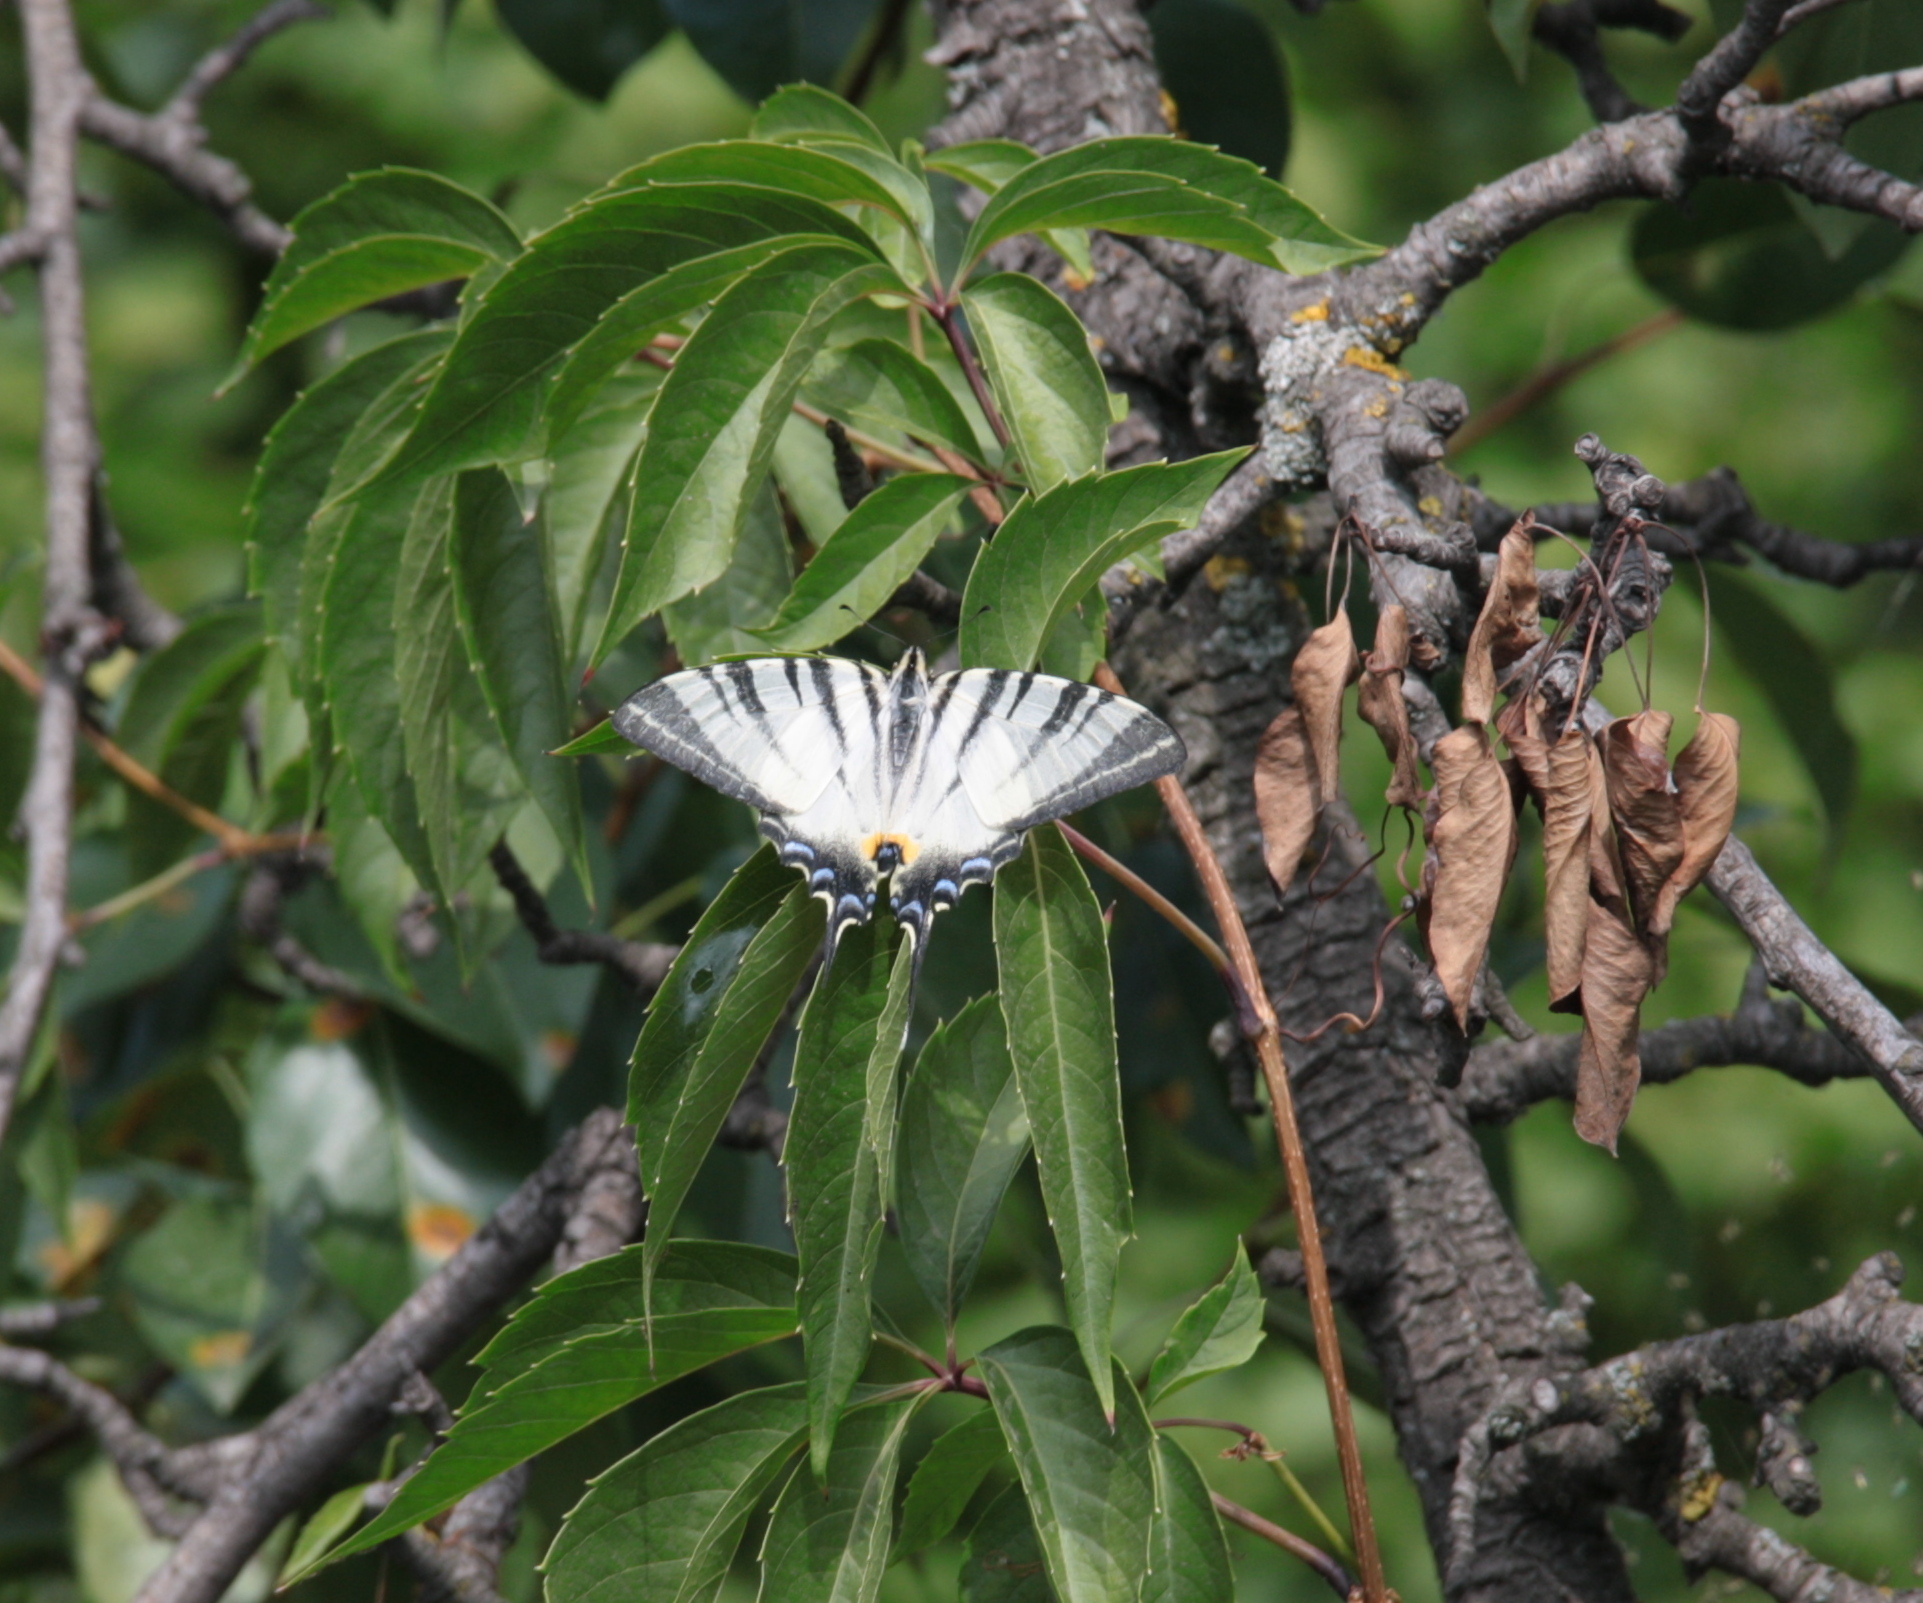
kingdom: Animalia
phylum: Arthropoda
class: Insecta
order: Lepidoptera
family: Papilionidae
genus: Iphiclides
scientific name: Iphiclides podalirius
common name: Scarce swallowtail
